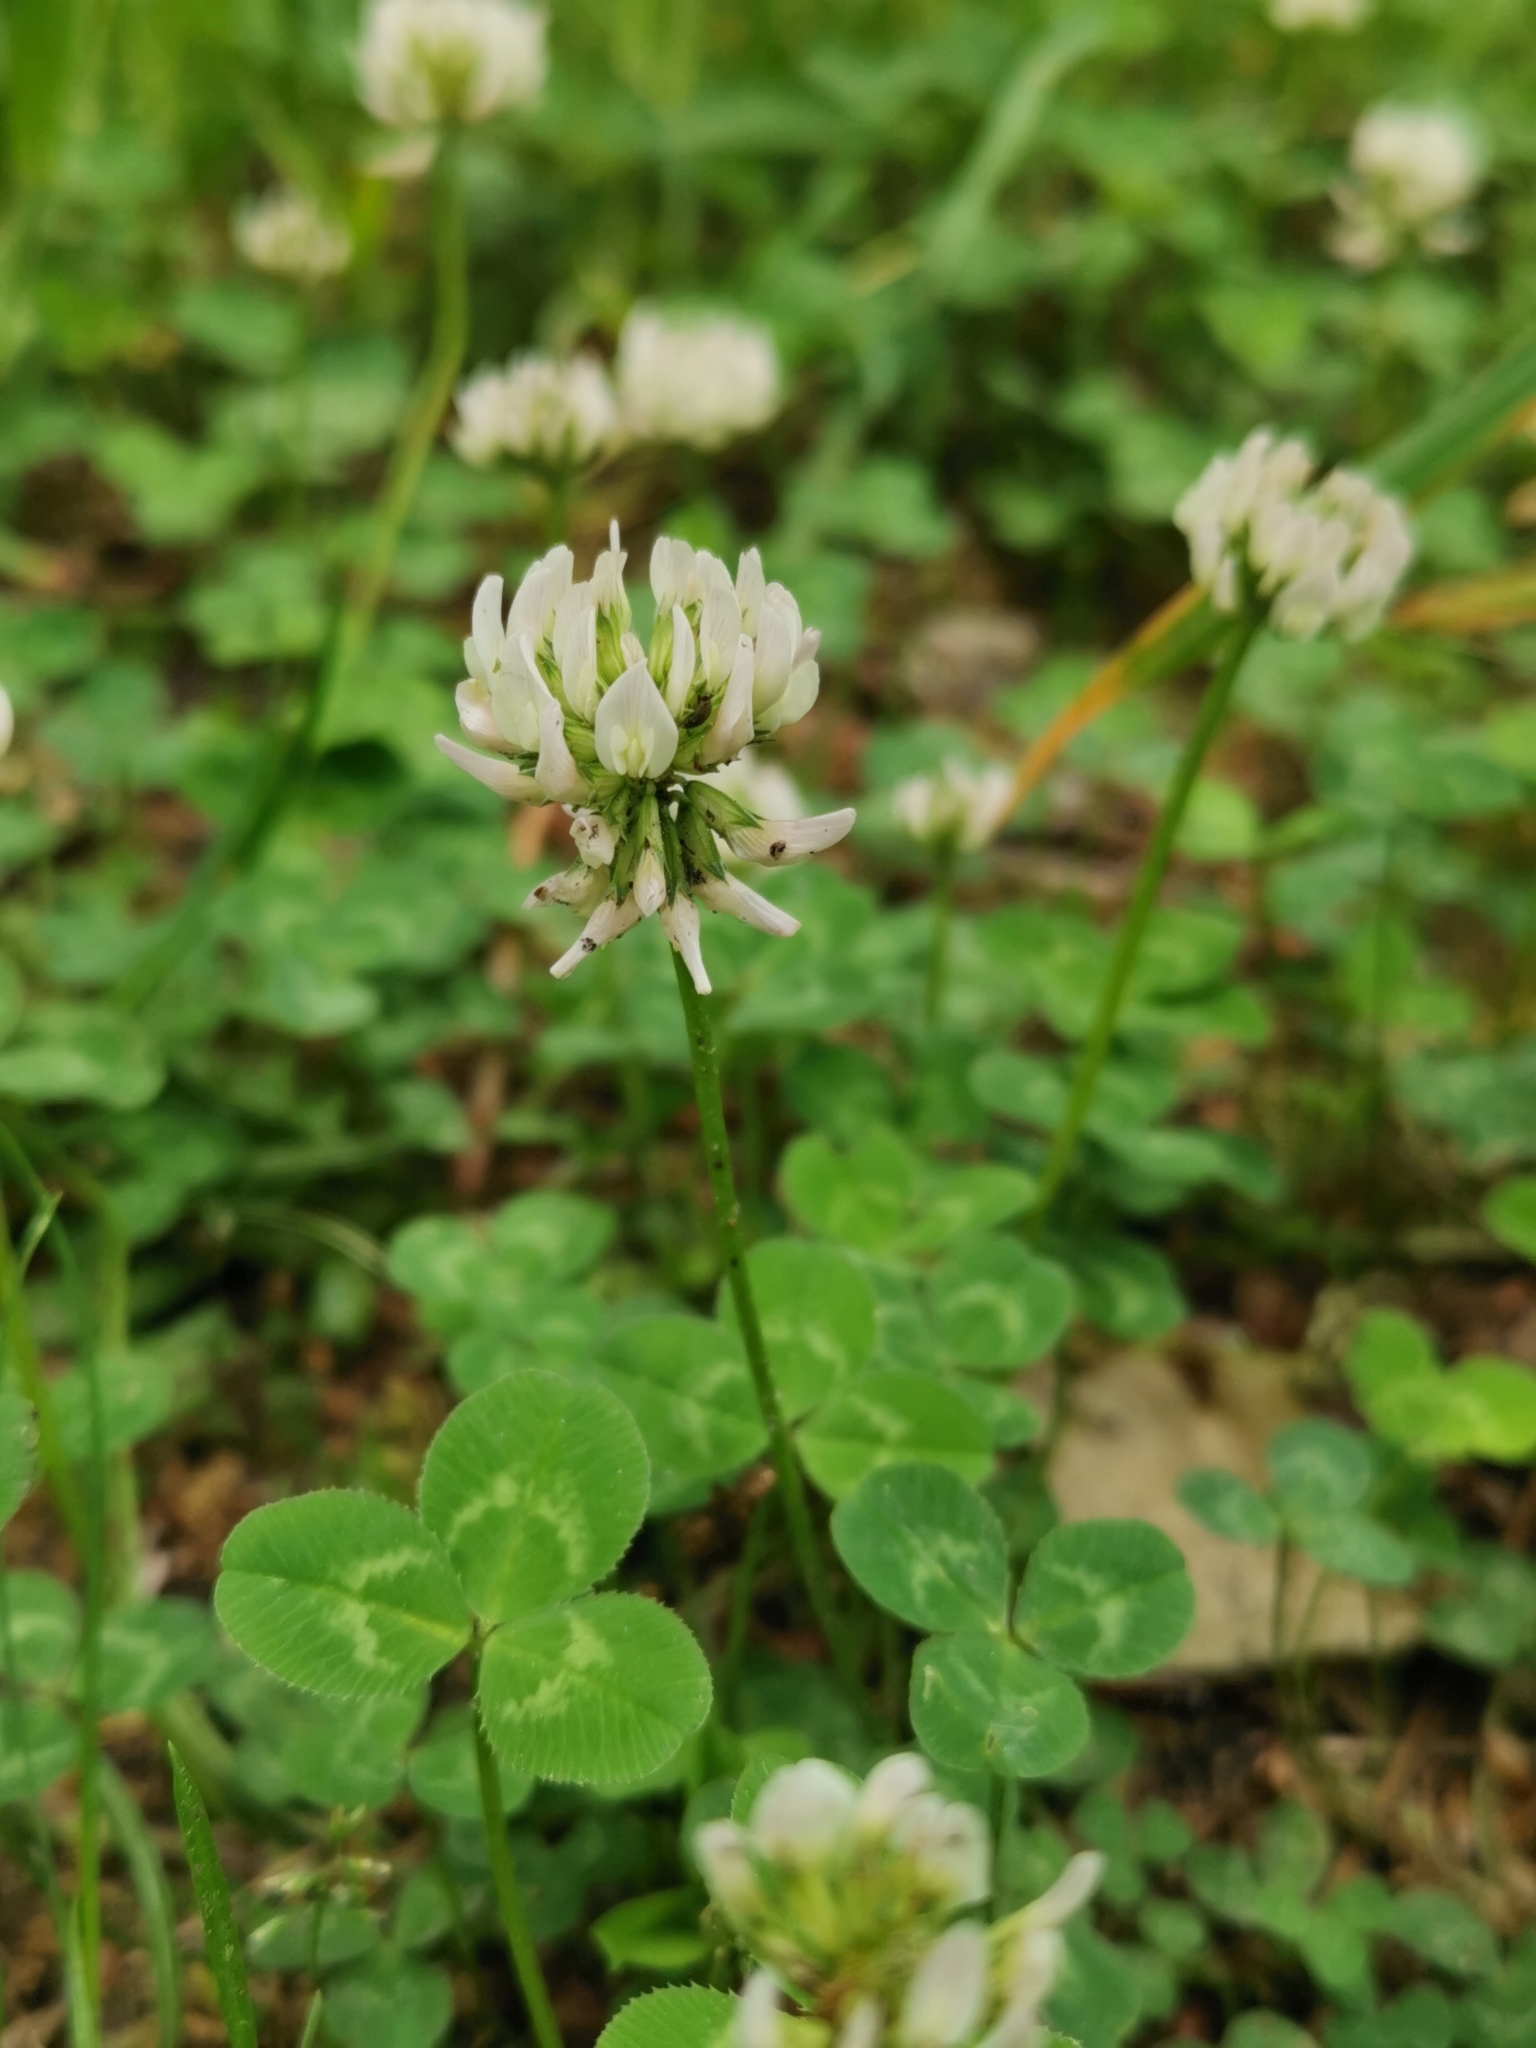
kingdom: Plantae
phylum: Tracheophyta
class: Magnoliopsida
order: Fabales
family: Fabaceae
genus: Trifolium
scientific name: Trifolium repens
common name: White clover
